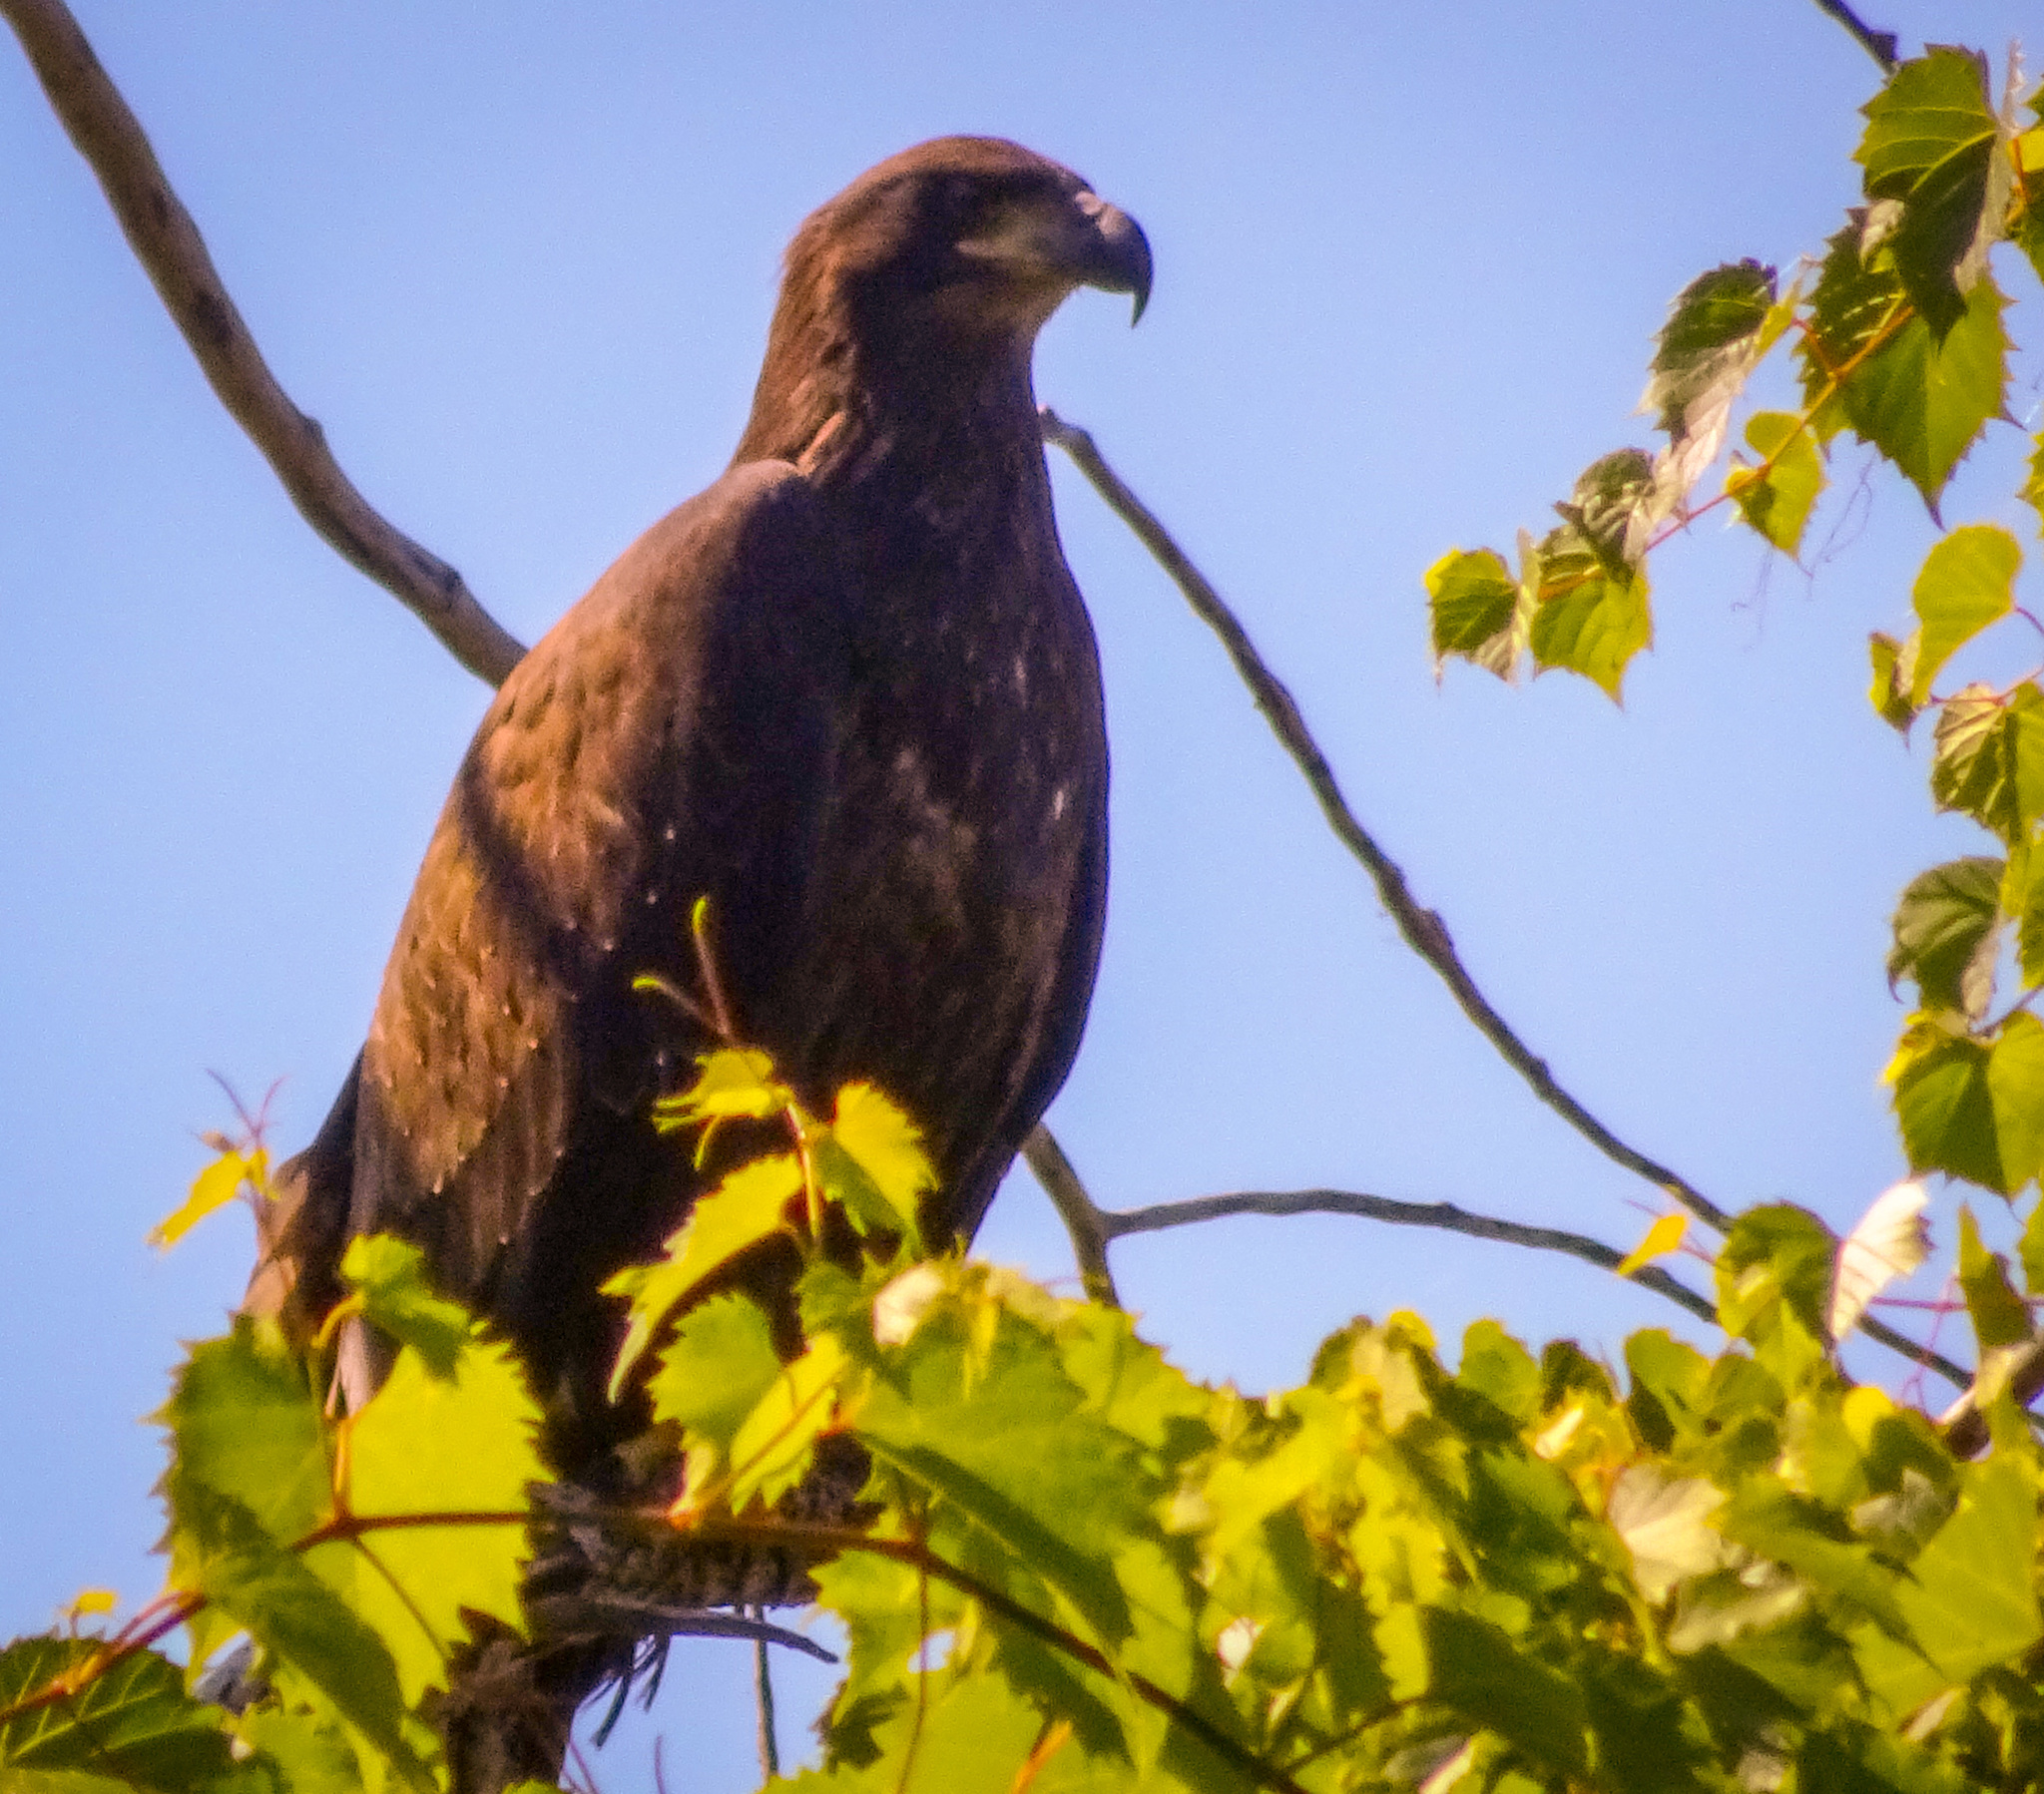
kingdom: Animalia
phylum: Chordata
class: Aves
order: Accipitriformes
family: Accipitridae
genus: Haliaeetus
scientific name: Haliaeetus leucocephalus
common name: Bald eagle
